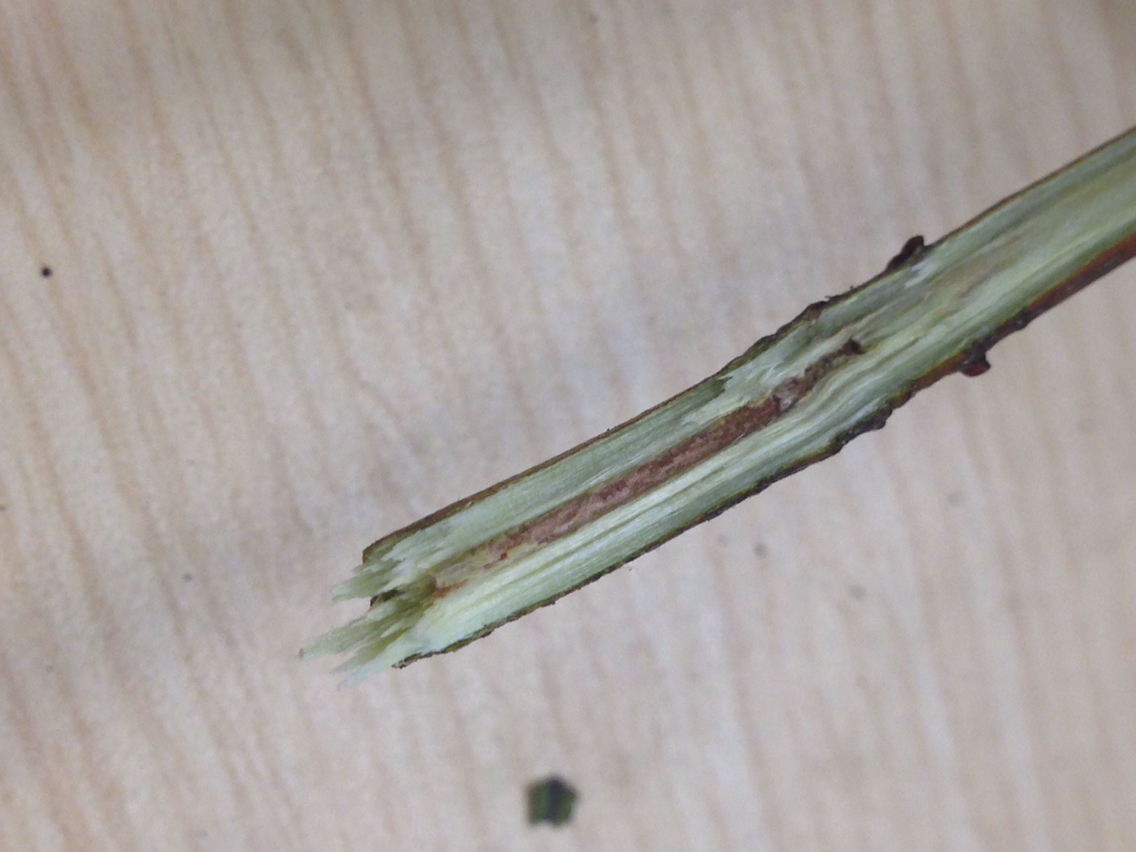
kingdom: Plantae
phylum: Tracheophyta
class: Magnoliopsida
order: Cornales
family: Cornaceae
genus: Cornus
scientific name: Cornus amomum
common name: Silky dogwood
